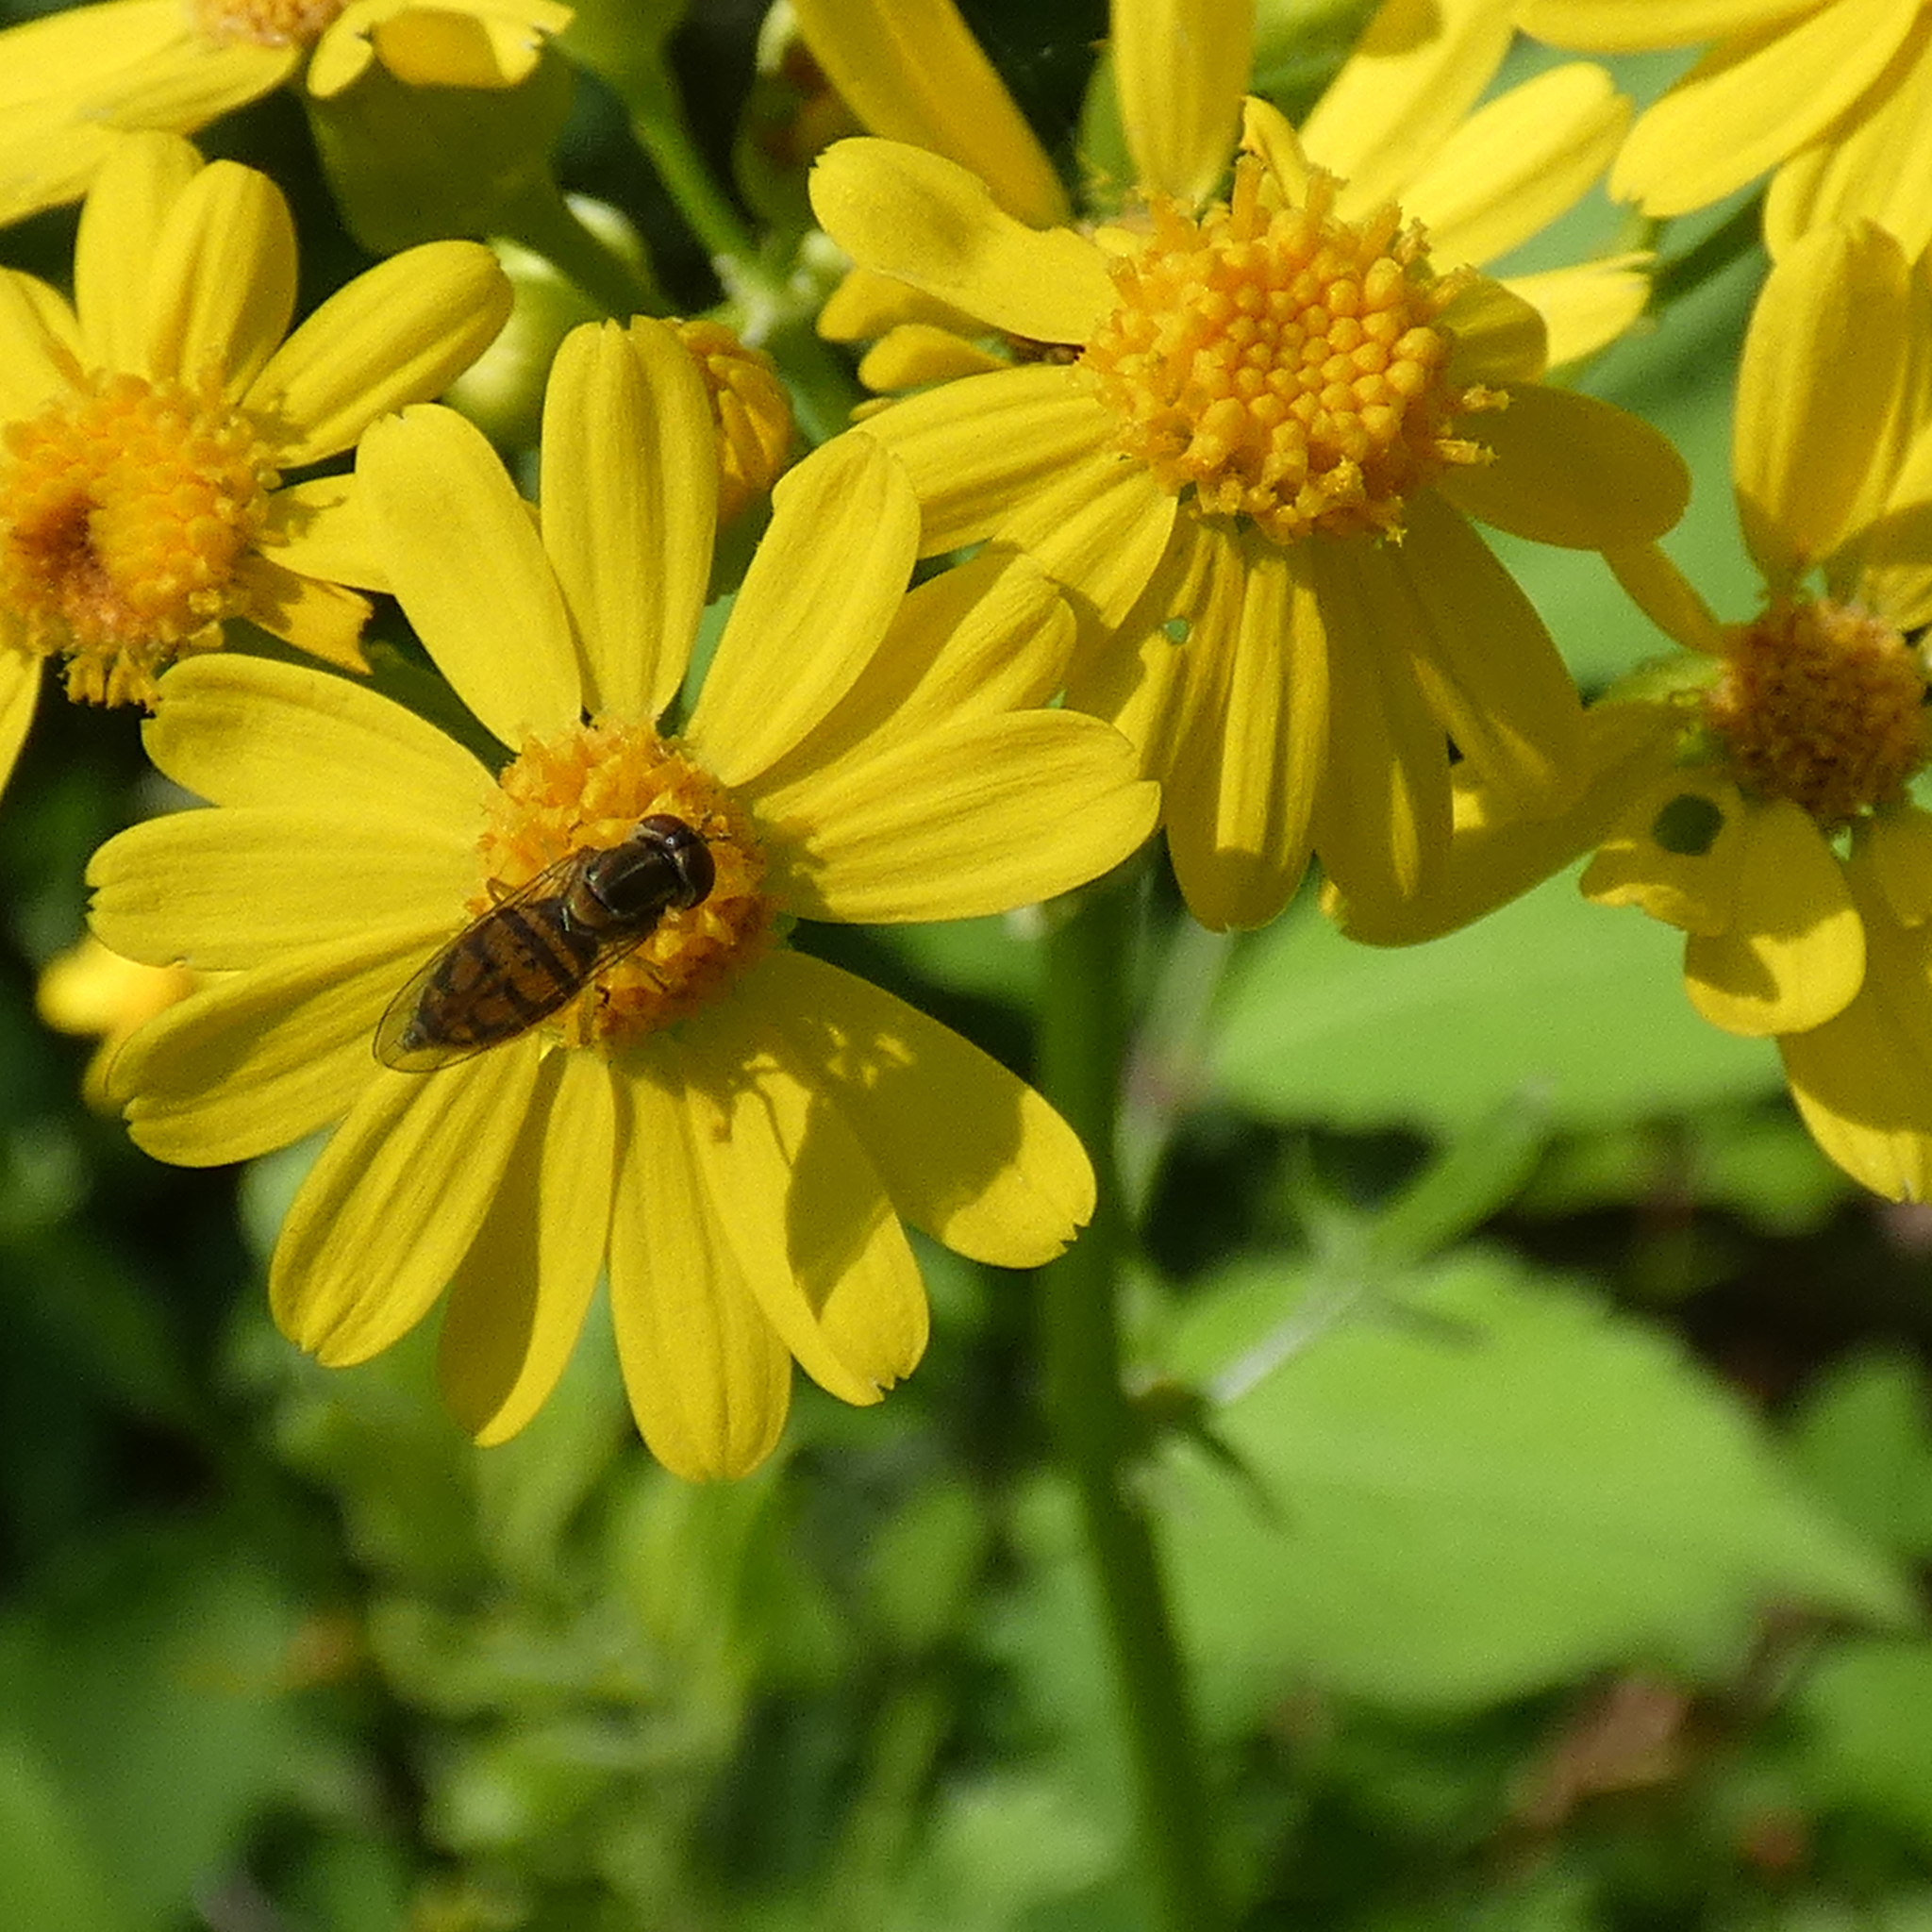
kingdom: Animalia
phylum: Arthropoda
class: Insecta
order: Diptera
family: Syrphidae
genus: Toxomerus
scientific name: Toxomerus marginatus
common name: Syrphid fly
